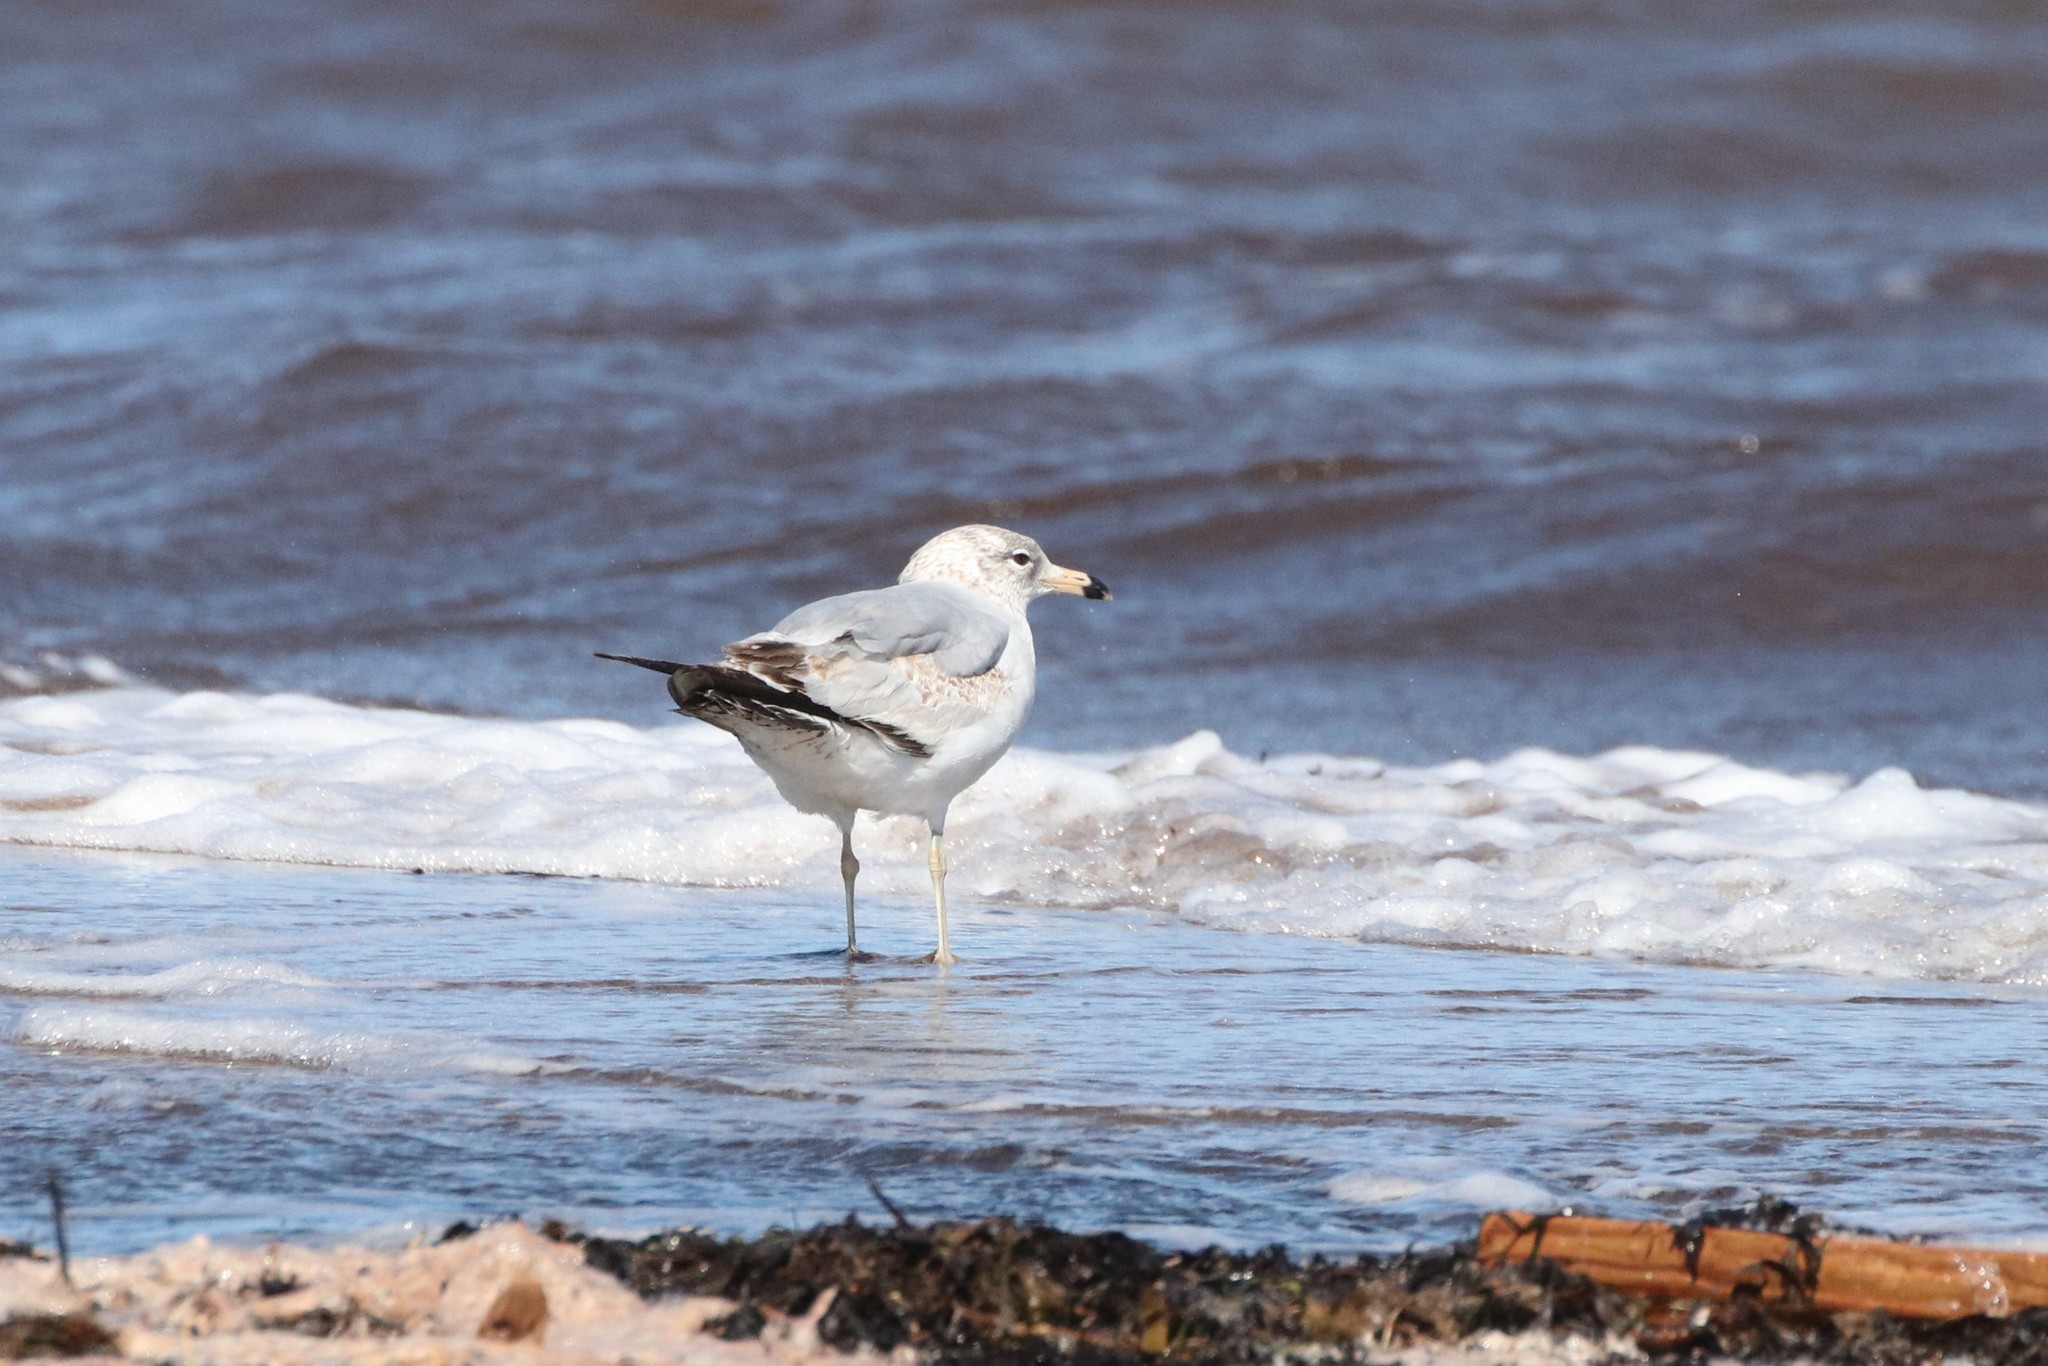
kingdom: Animalia
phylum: Chordata
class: Aves
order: Charadriiformes
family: Laridae
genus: Larus
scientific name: Larus delawarensis
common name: Ring-billed gull
